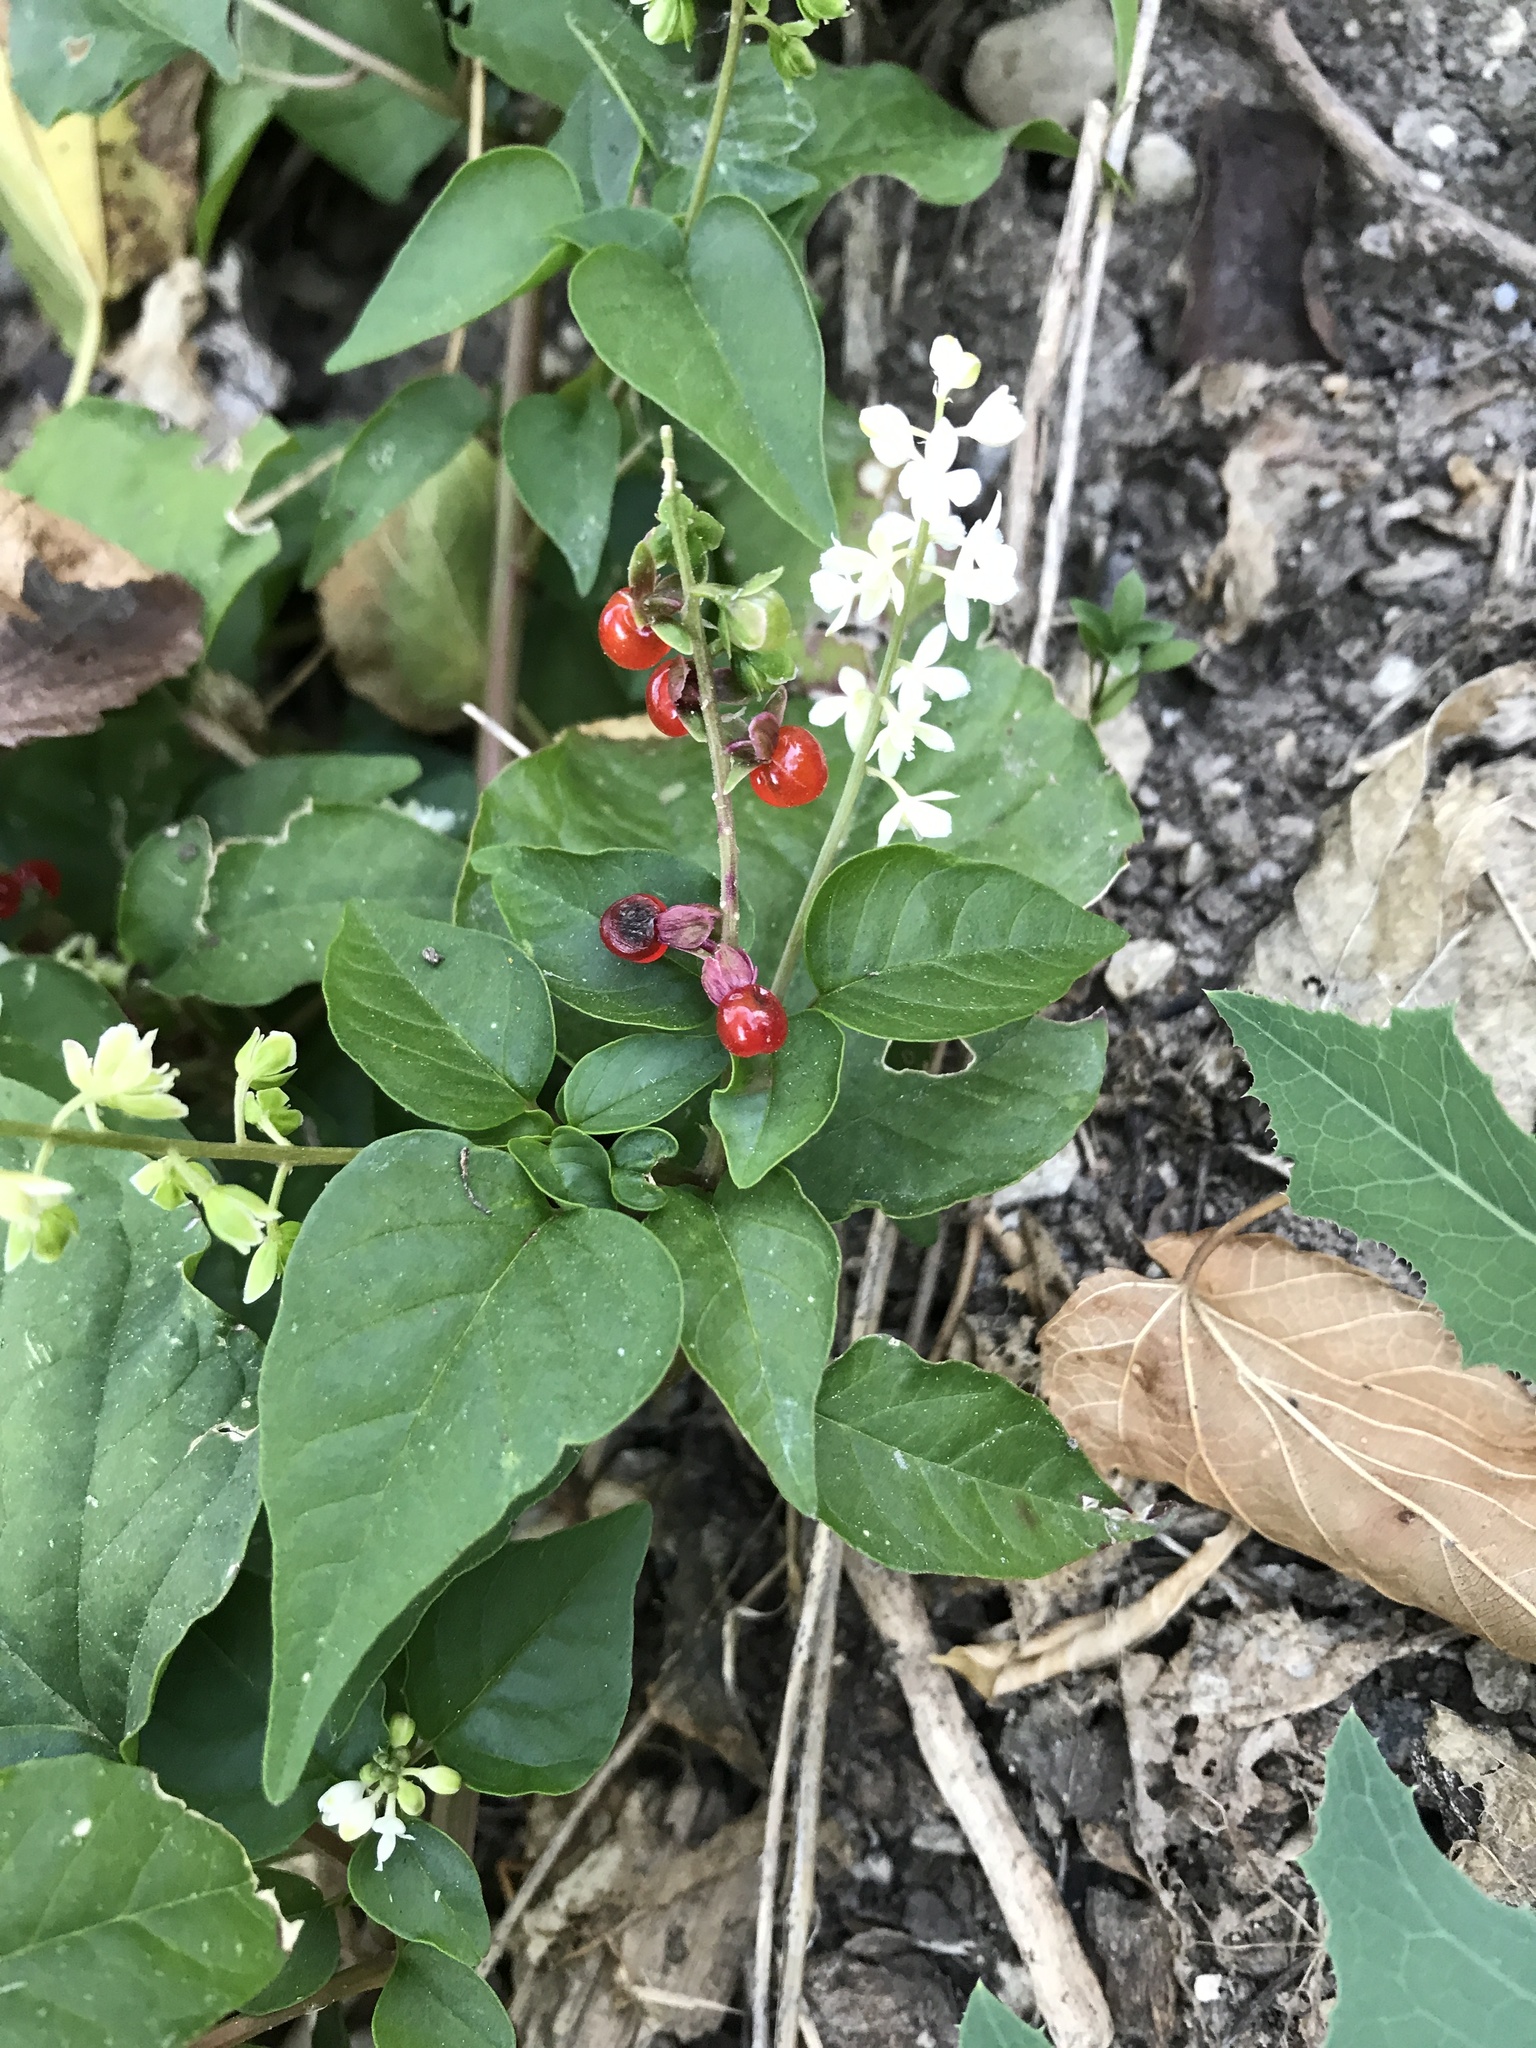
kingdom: Plantae
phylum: Tracheophyta
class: Magnoliopsida
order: Caryophyllales
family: Phytolaccaceae
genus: Rivina
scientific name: Rivina humilis
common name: Rougeplant
